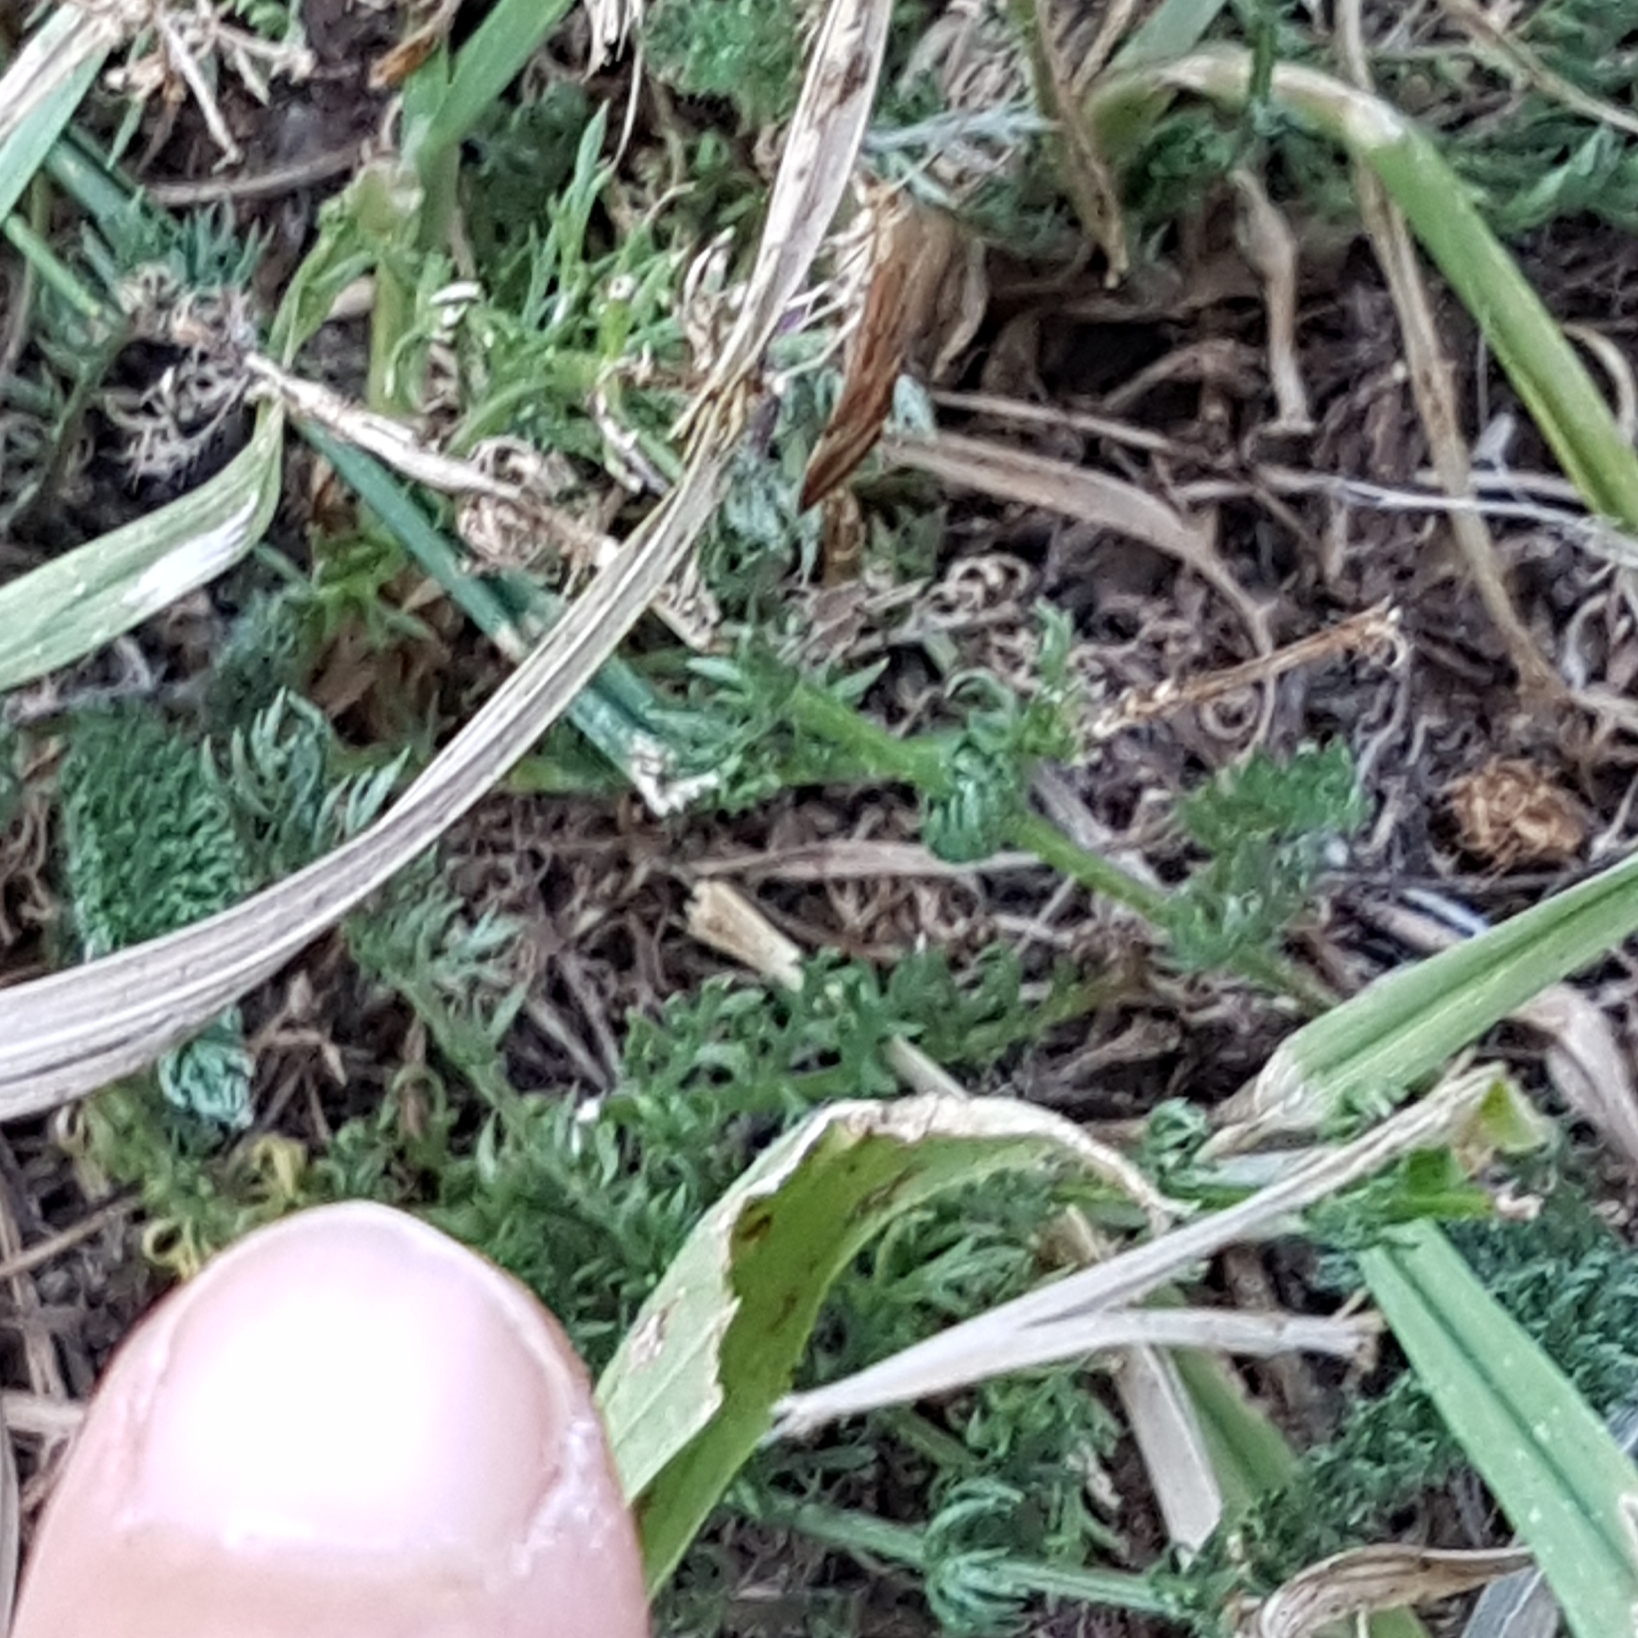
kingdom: Animalia
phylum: Arthropoda
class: Insecta
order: Lepidoptera
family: Crambidae
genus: Pyrausta
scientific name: Pyrausta despicata
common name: Straw-barred pearl
